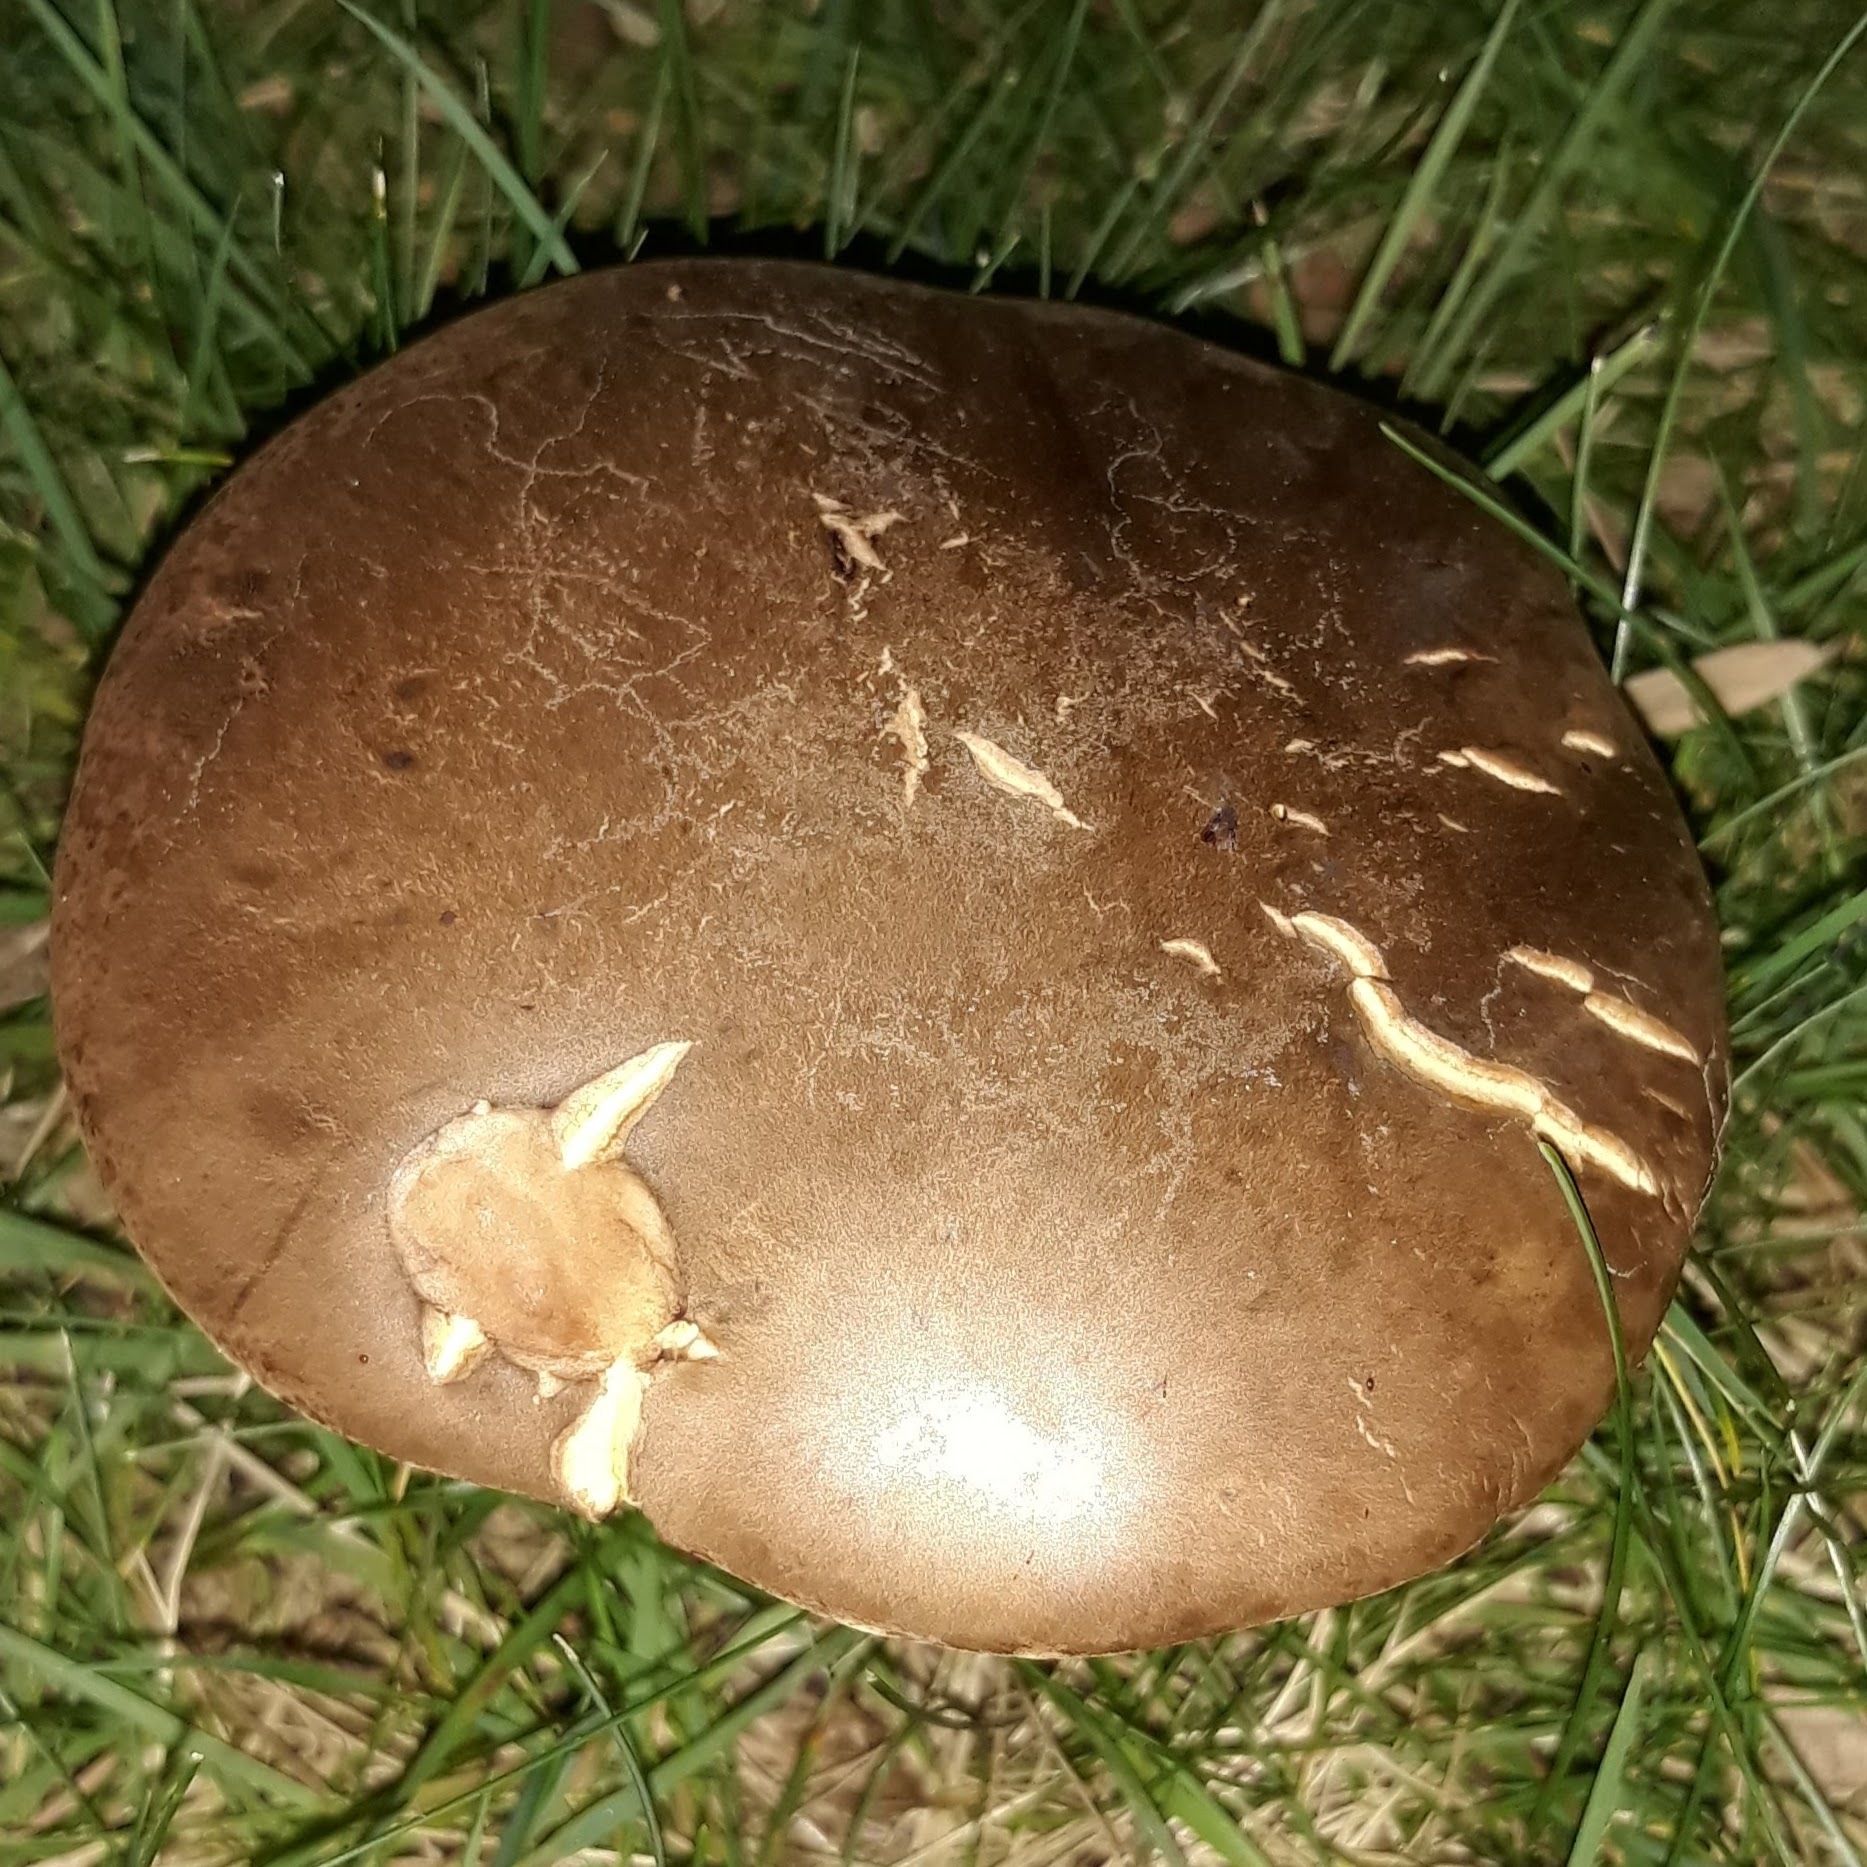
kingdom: Fungi
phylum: Basidiomycota
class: Agaricomycetes
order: Boletales
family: Boletaceae
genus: Butyriboletus
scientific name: Butyriboletus brunneus
